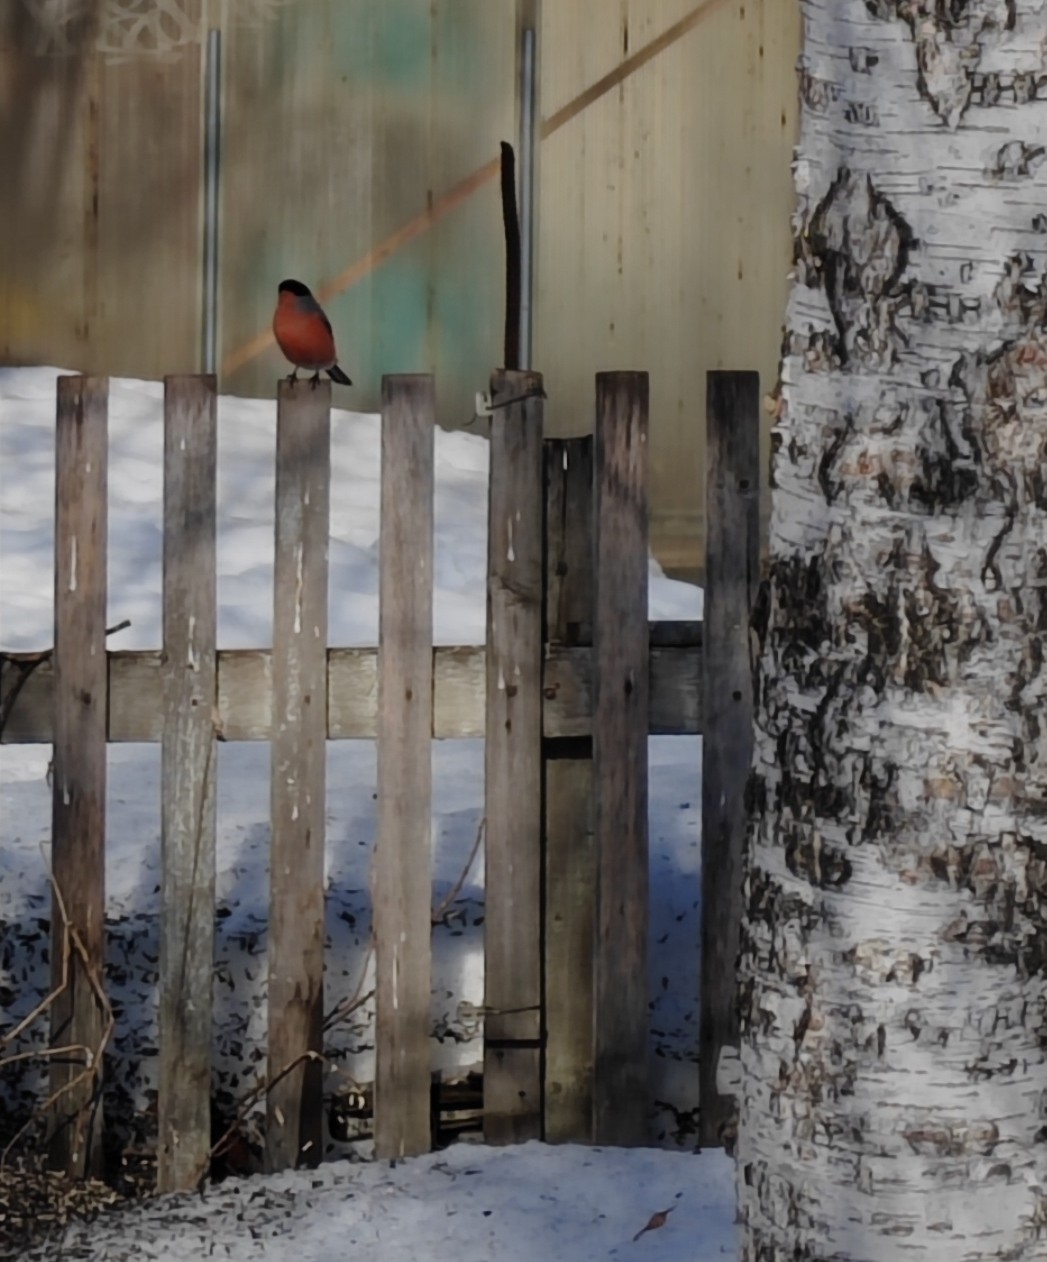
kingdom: Animalia
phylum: Chordata
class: Aves
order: Passeriformes
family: Fringillidae
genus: Pyrrhula
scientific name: Pyrrhula pyrrhula
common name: Eurasian bullfinch
